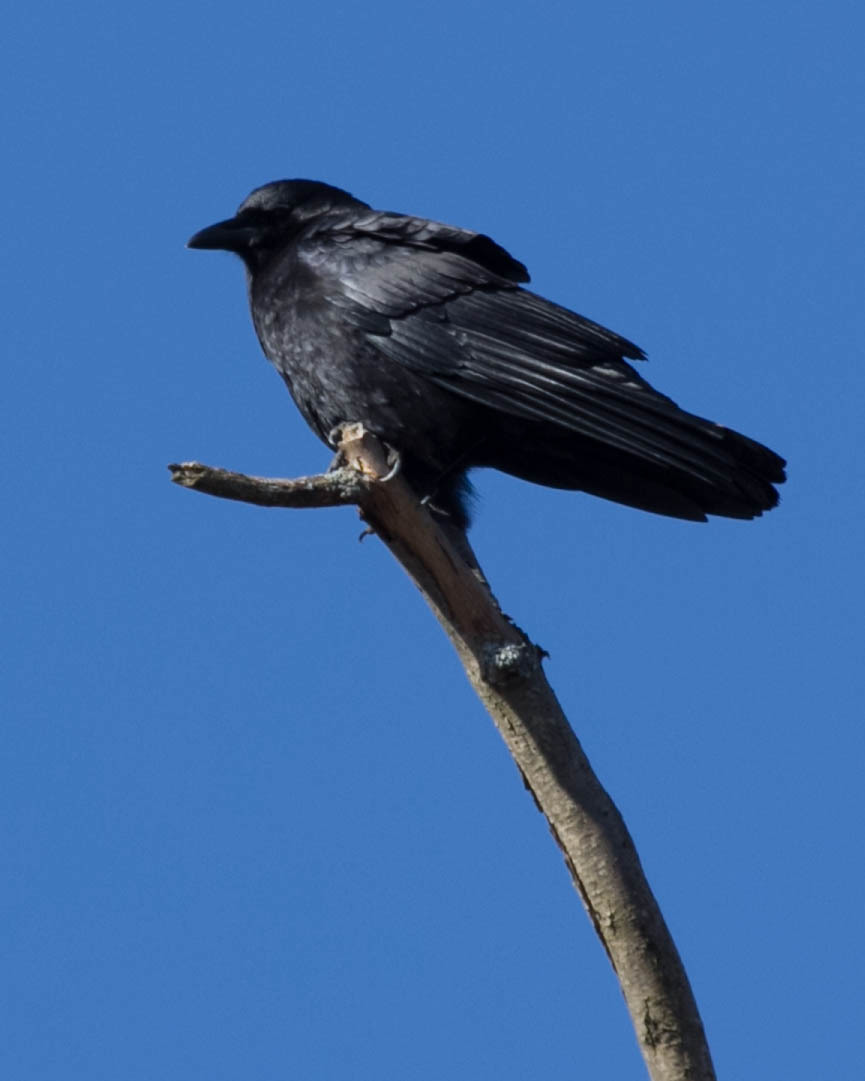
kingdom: Animalia
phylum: Chordata
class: Aves
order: Passeriformes
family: Corvidae
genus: Corvus
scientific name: Corvus brachyrhynchos
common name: American crow
